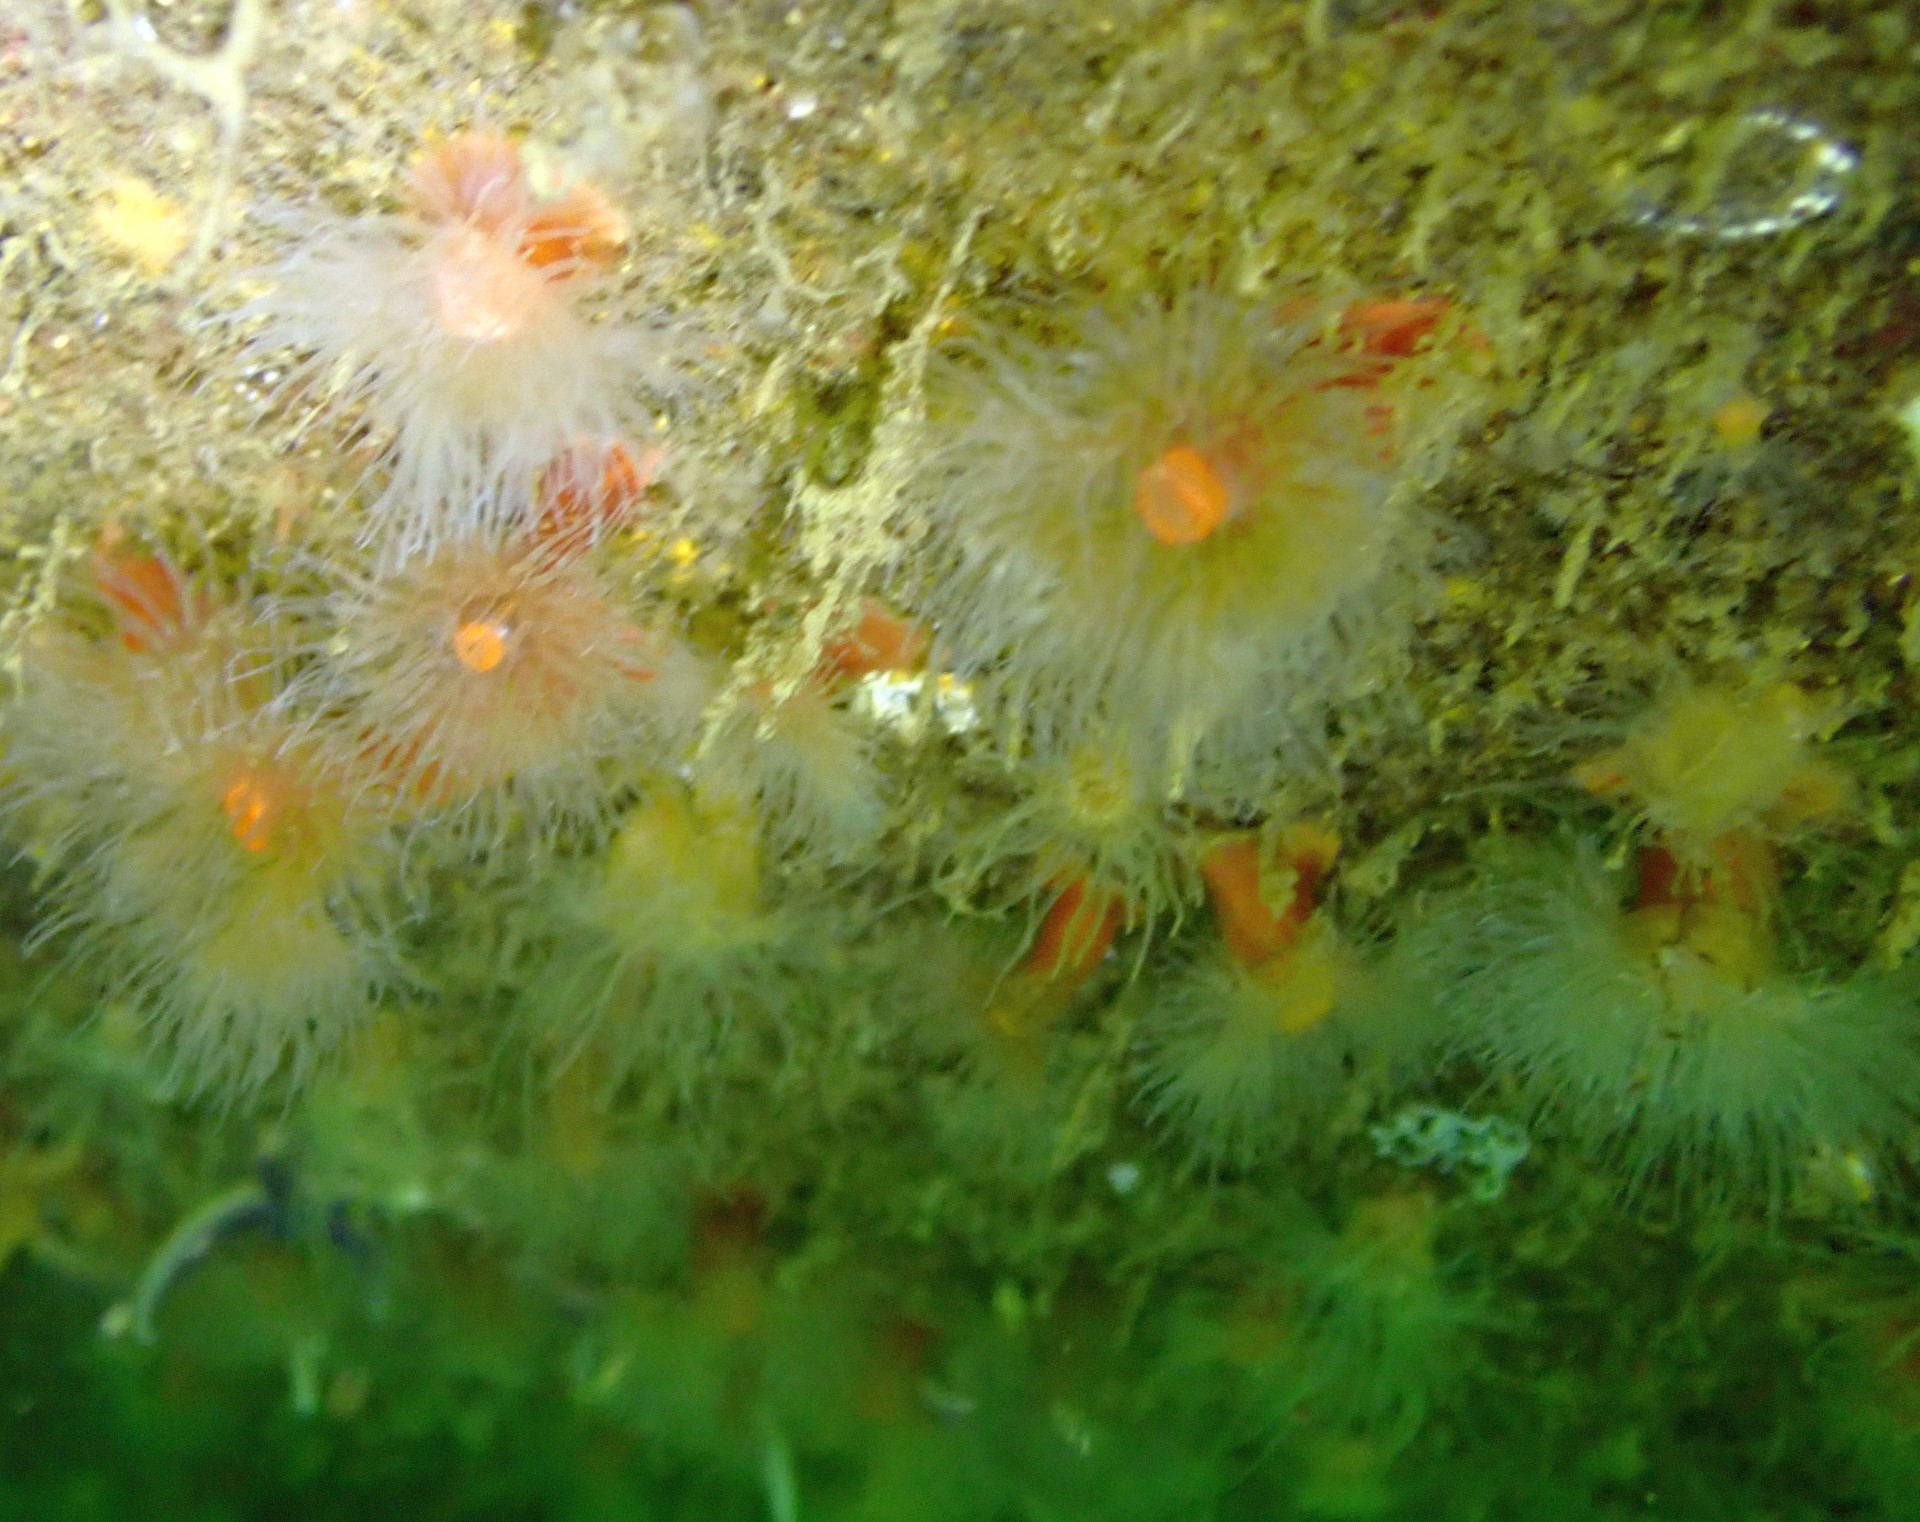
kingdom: Animalia
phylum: Cnidaria
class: Anthozoa
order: Actiniaria
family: Metridiidae
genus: Metridium
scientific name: Metridium senile
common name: Clonal plumose anemone
